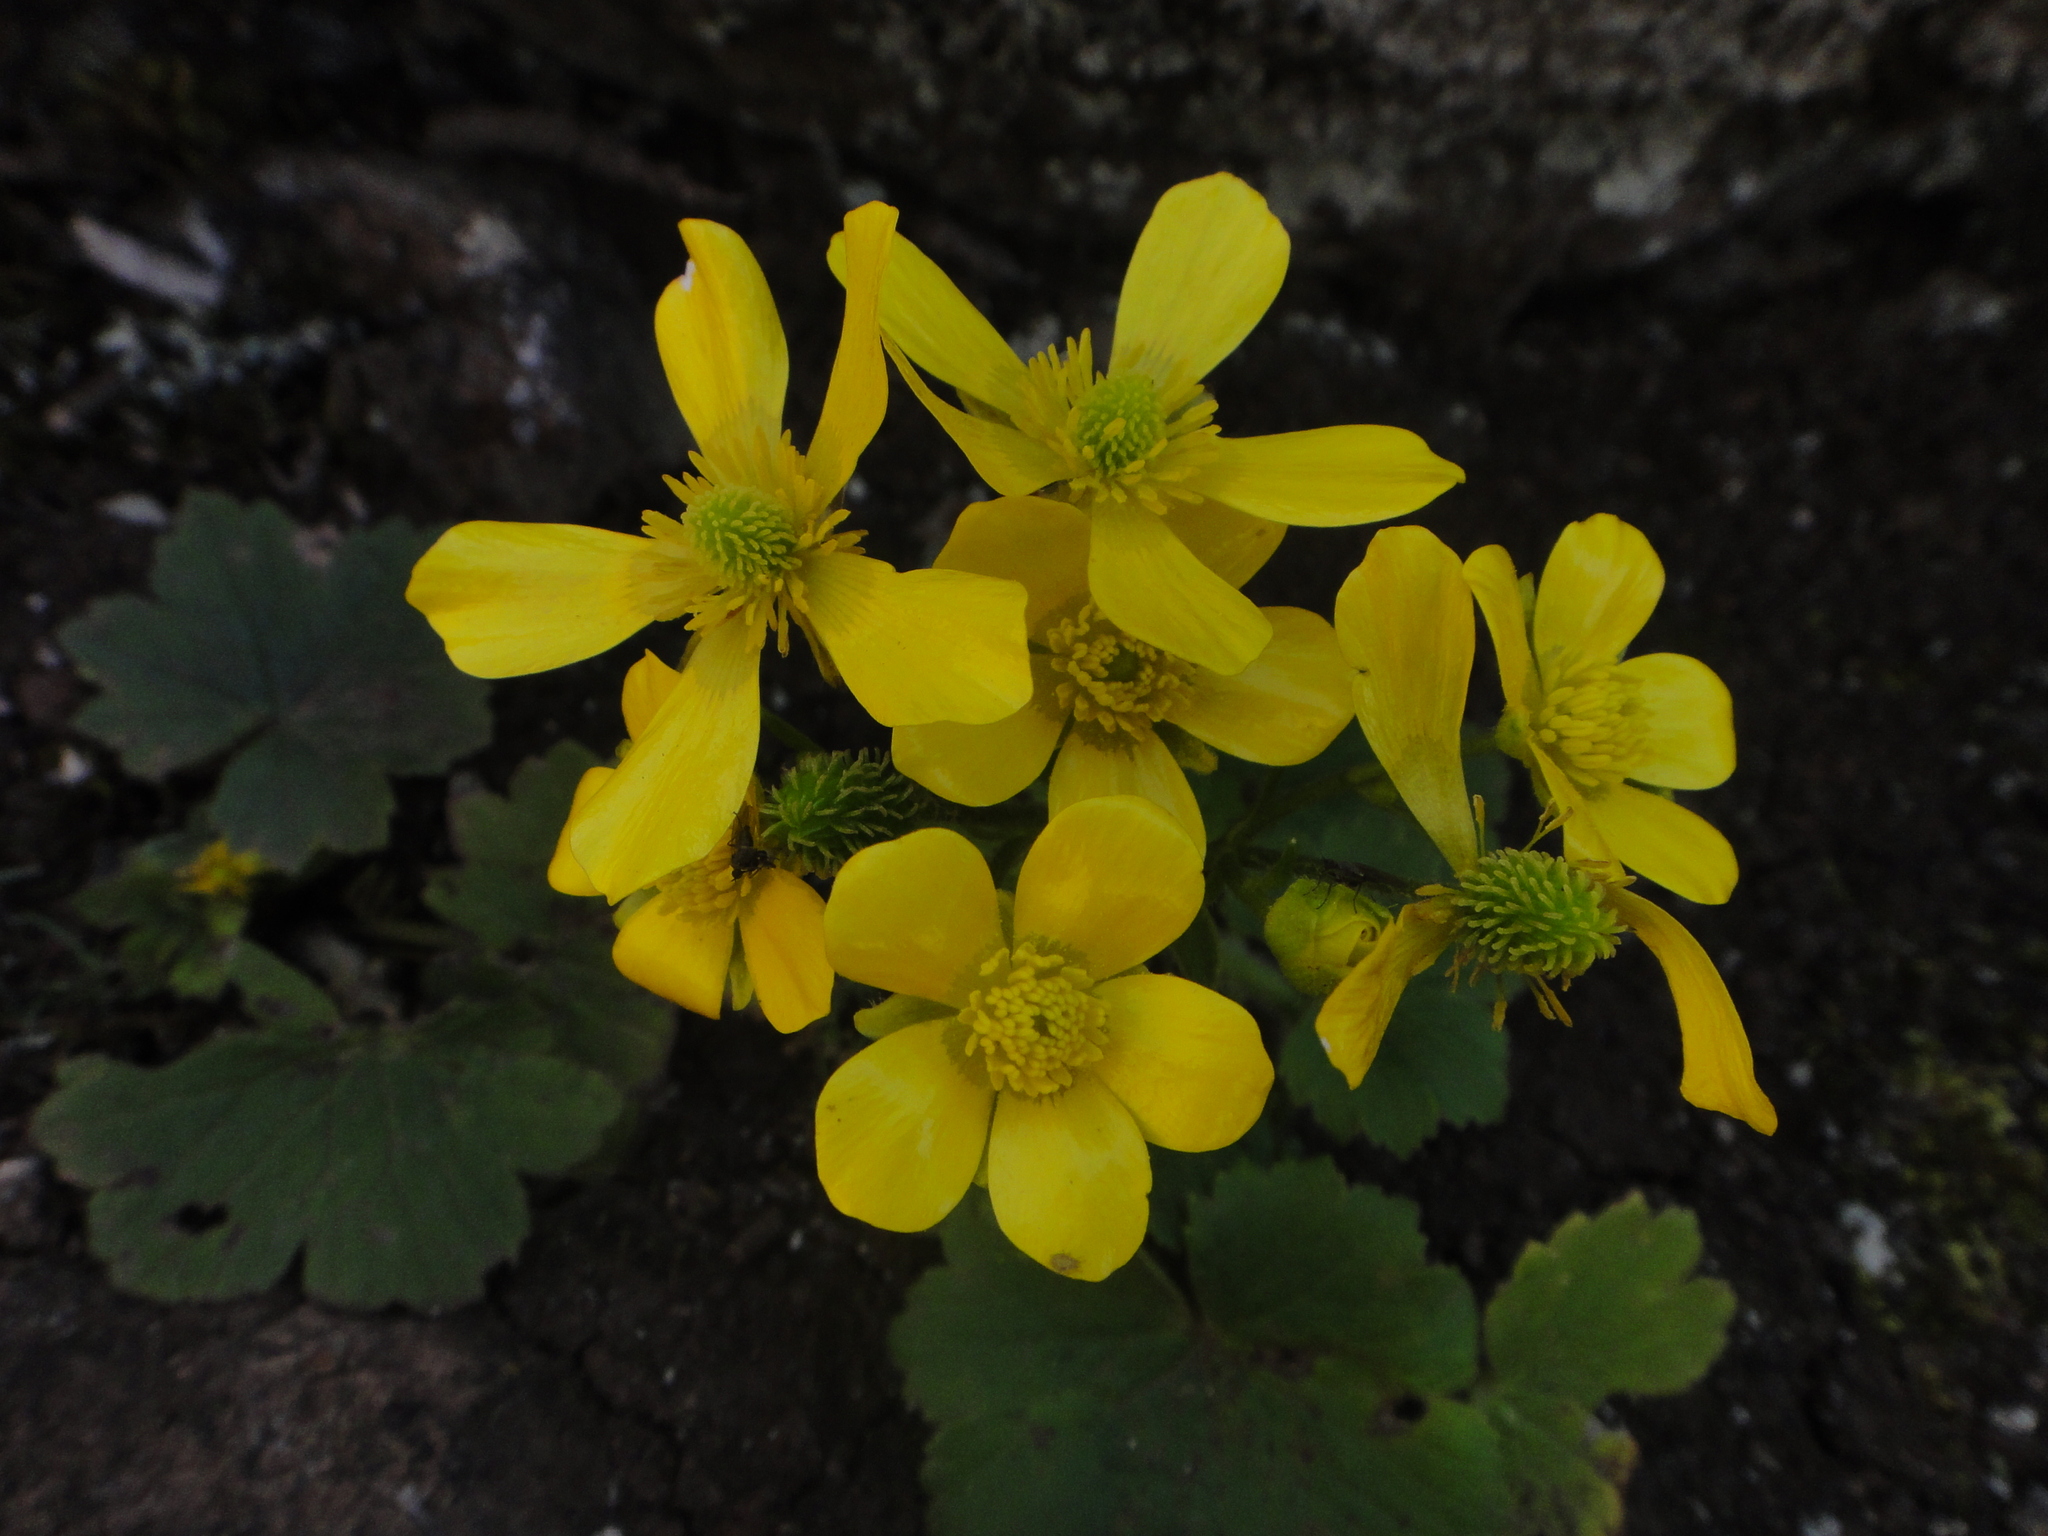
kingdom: Plantae
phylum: Tracheophyta
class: Magnoliopsida
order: Ranunculales
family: Ranunculaceae
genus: Ranunculus
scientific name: Ranunculus cortusifolius
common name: Azores buttercup
